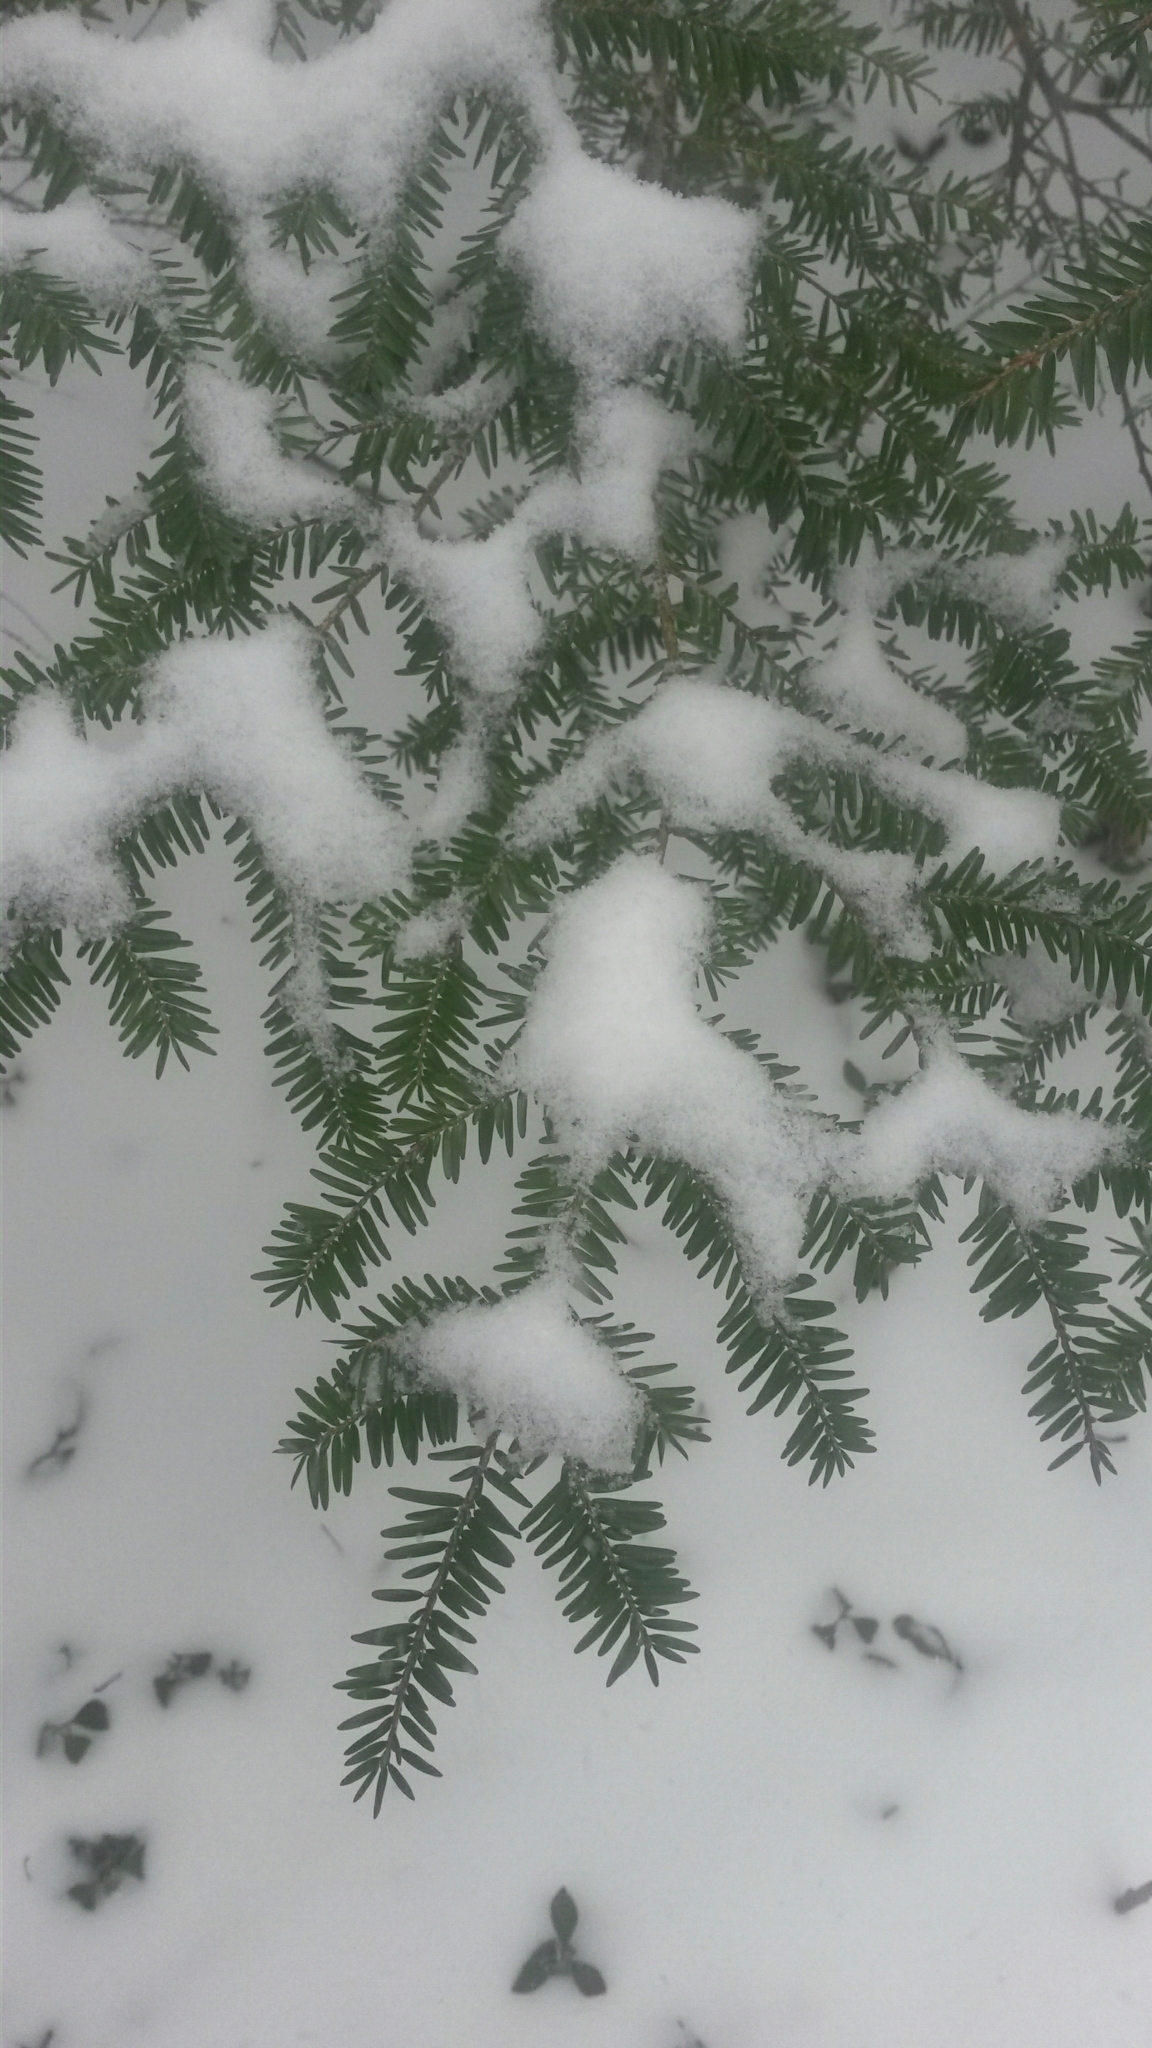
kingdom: Plantae
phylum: Tracheophyta
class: Pinopsida
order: Pinales
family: Pinaceae
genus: Tsuga
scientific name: Tsuga canadensis
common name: Eastern hemlock
